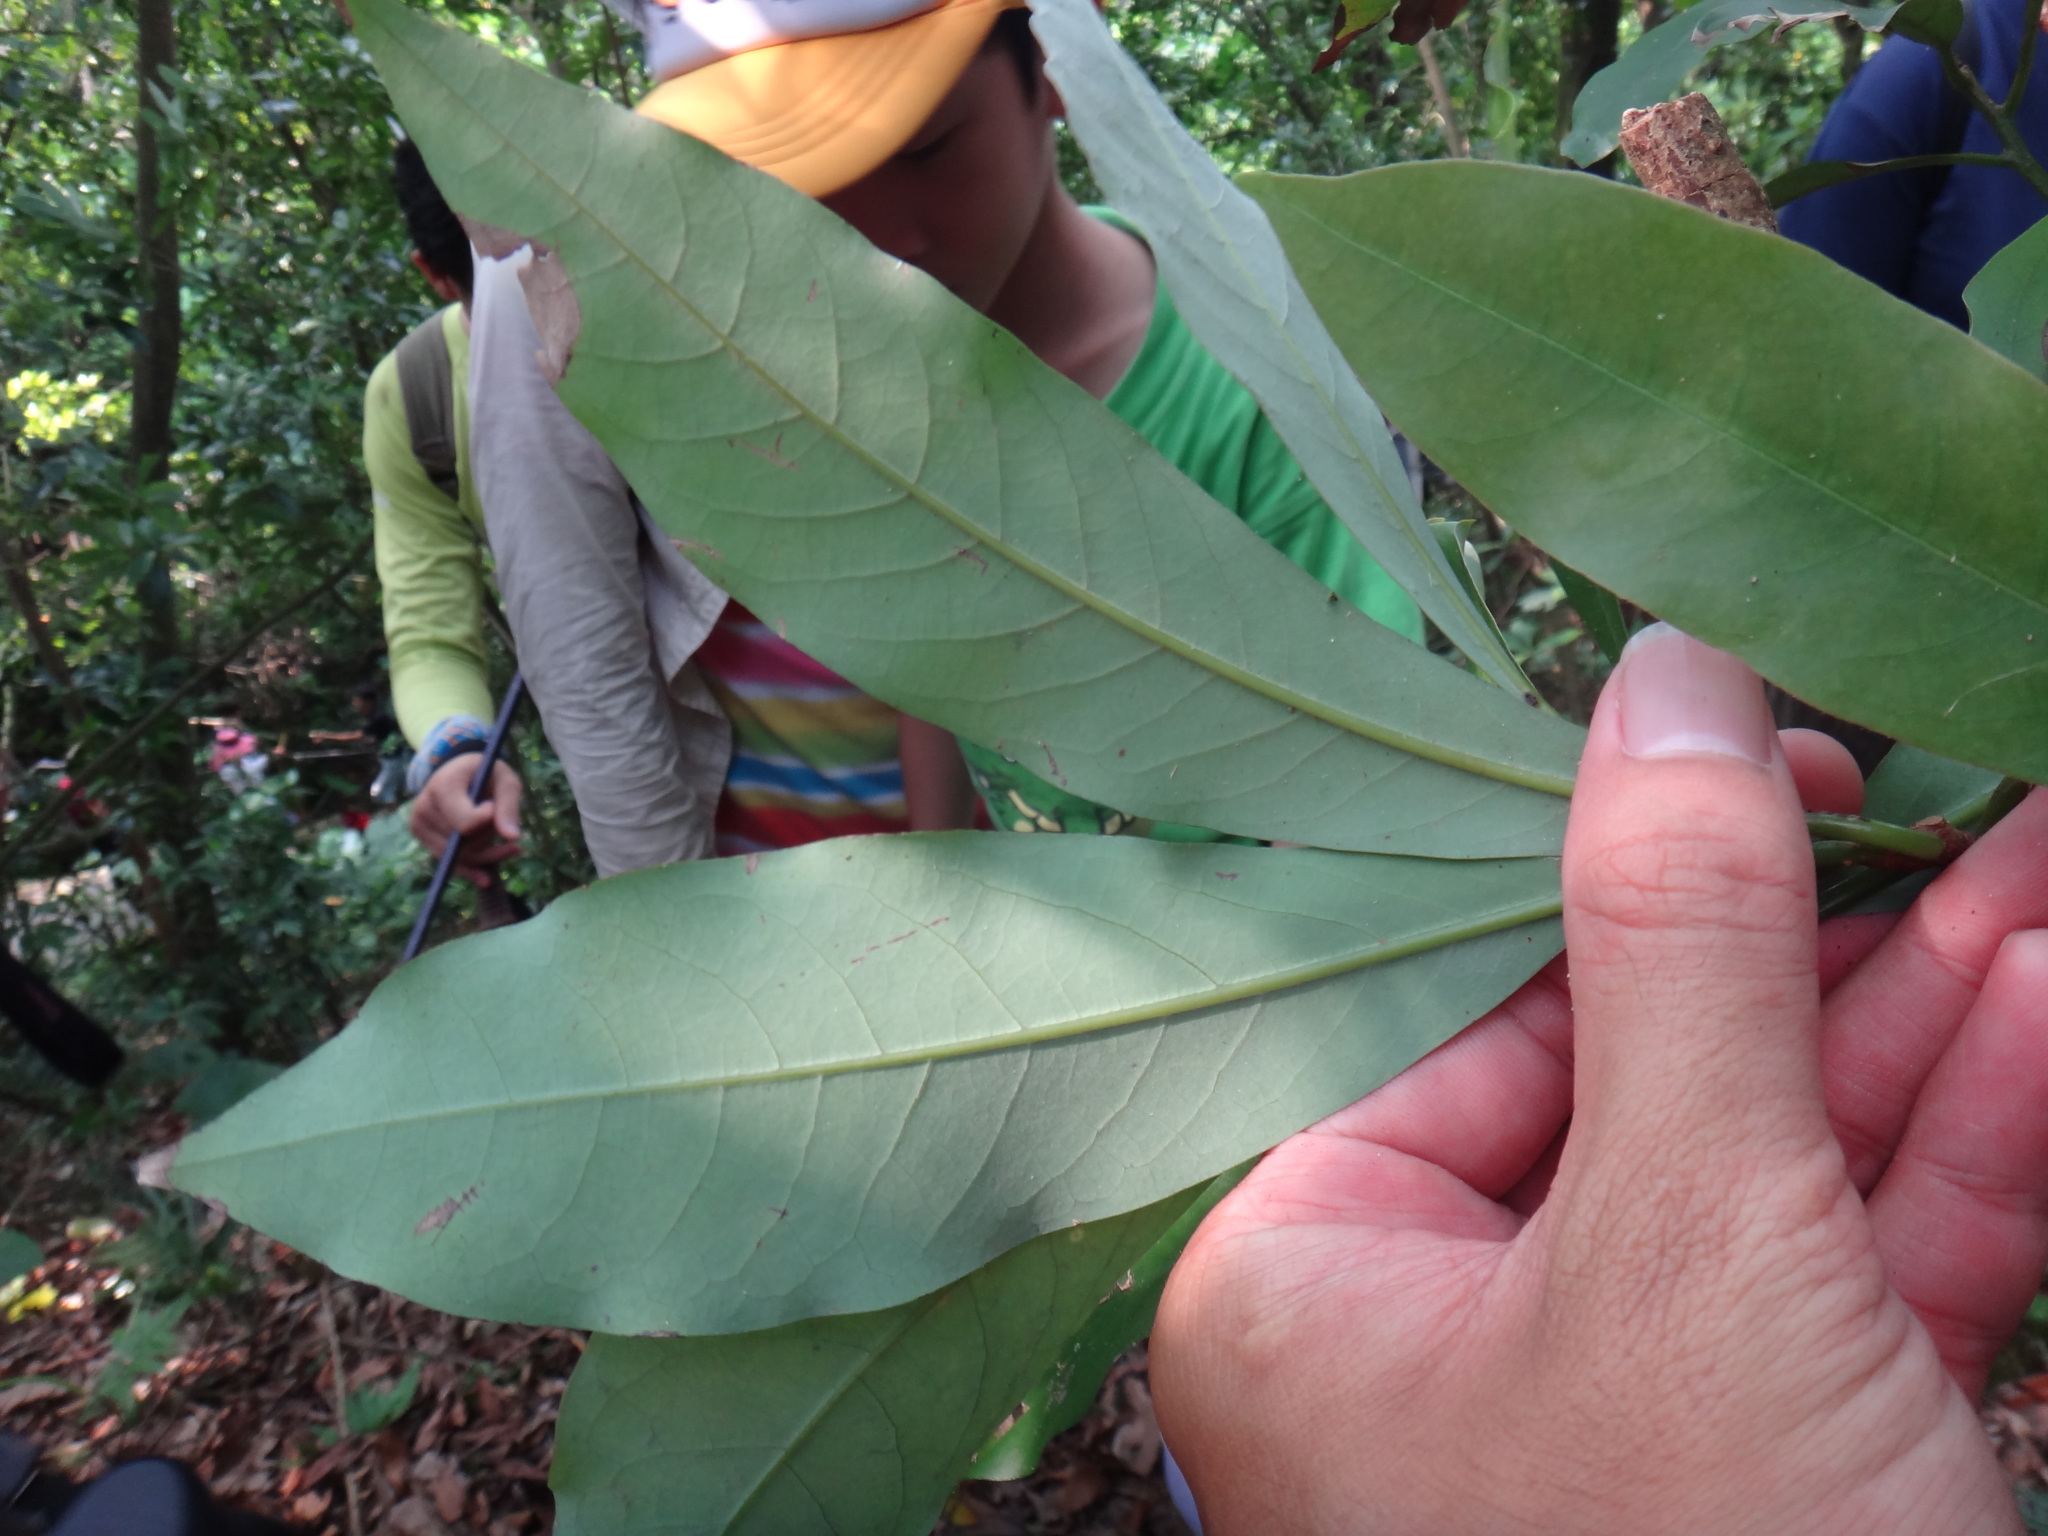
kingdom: Plantae
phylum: Tracheophyta
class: Magnoliopsida
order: Laurales
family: Lauraceae
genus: Machilus
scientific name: Machilus japonica
